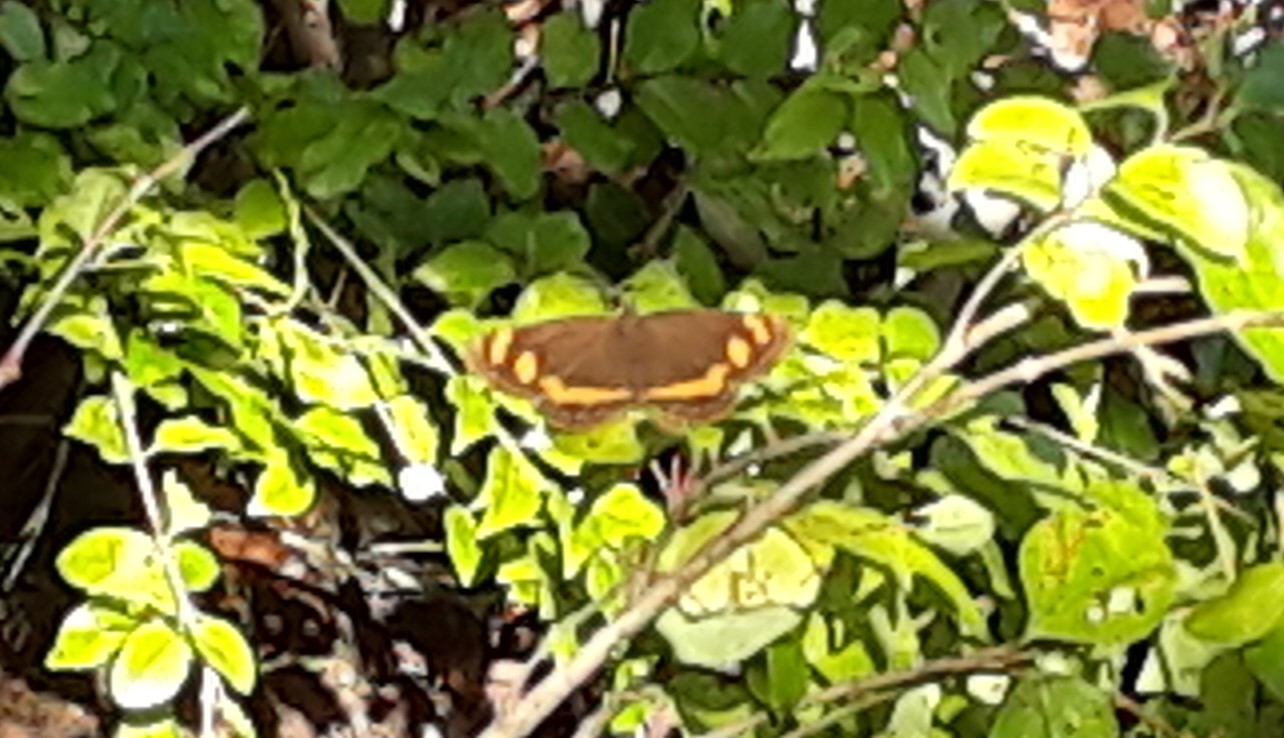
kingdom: Animalia
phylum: Arthropoda
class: Insecta
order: Lepidoptera
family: Nymphalidae
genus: Neptis
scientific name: Neptis frobenia
